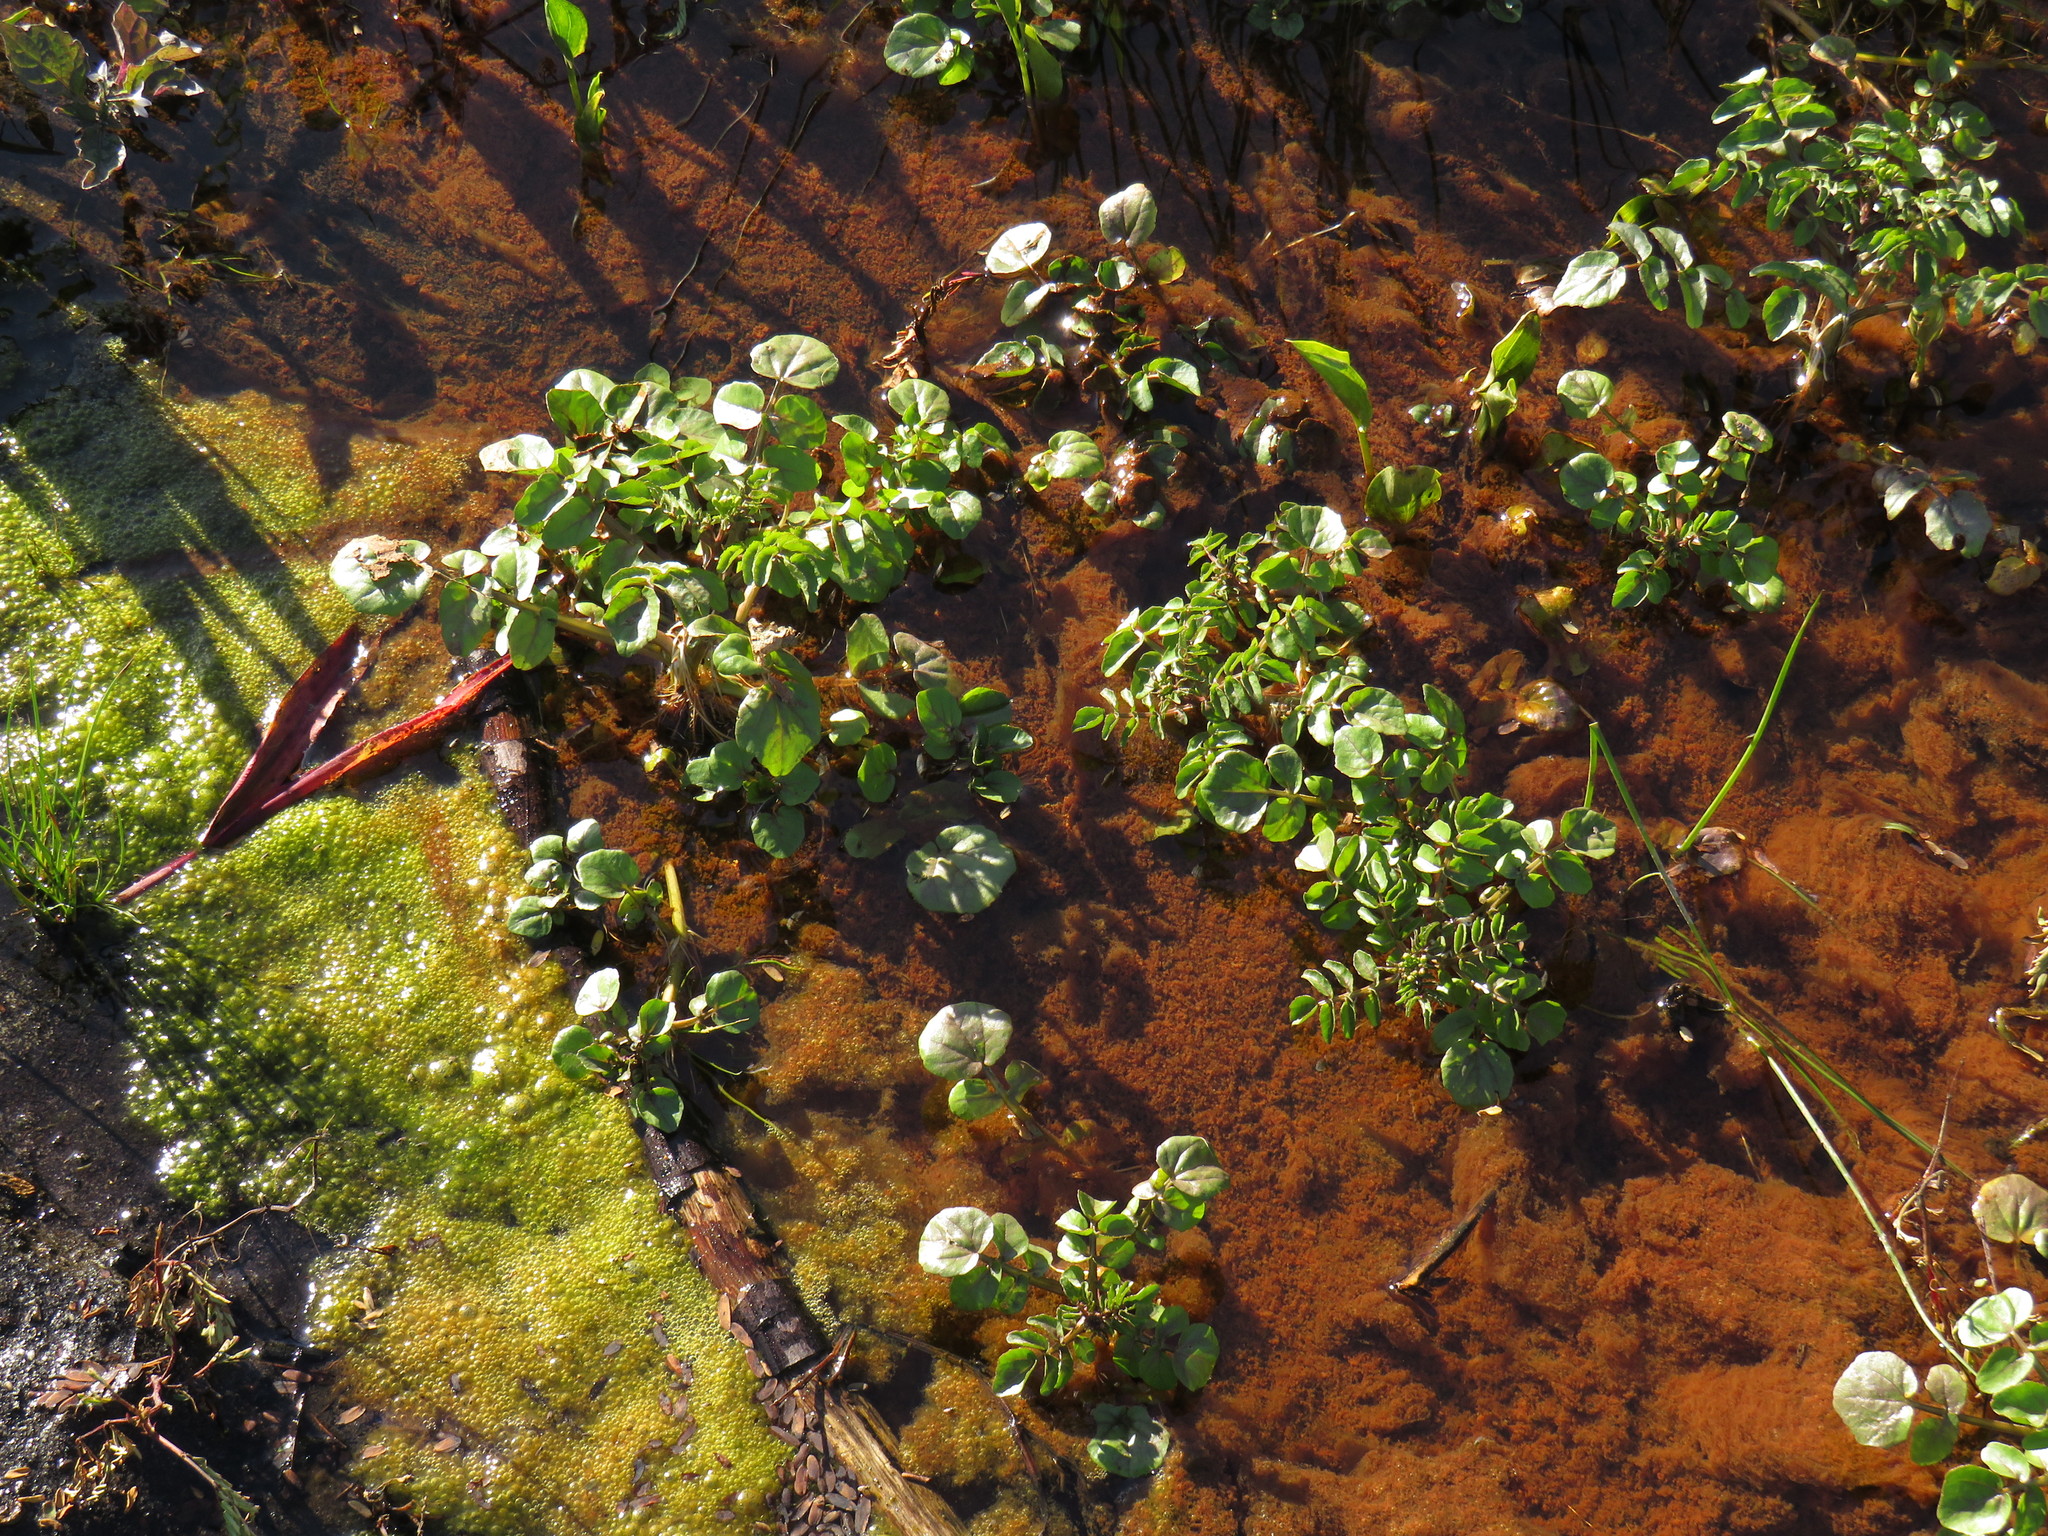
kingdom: Plantae
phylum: Tracheophyta
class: Magnoliopsida
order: Brassicales
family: Brassicaceae
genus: Nasturtium
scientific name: Nasturtium officinale
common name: Watercress
